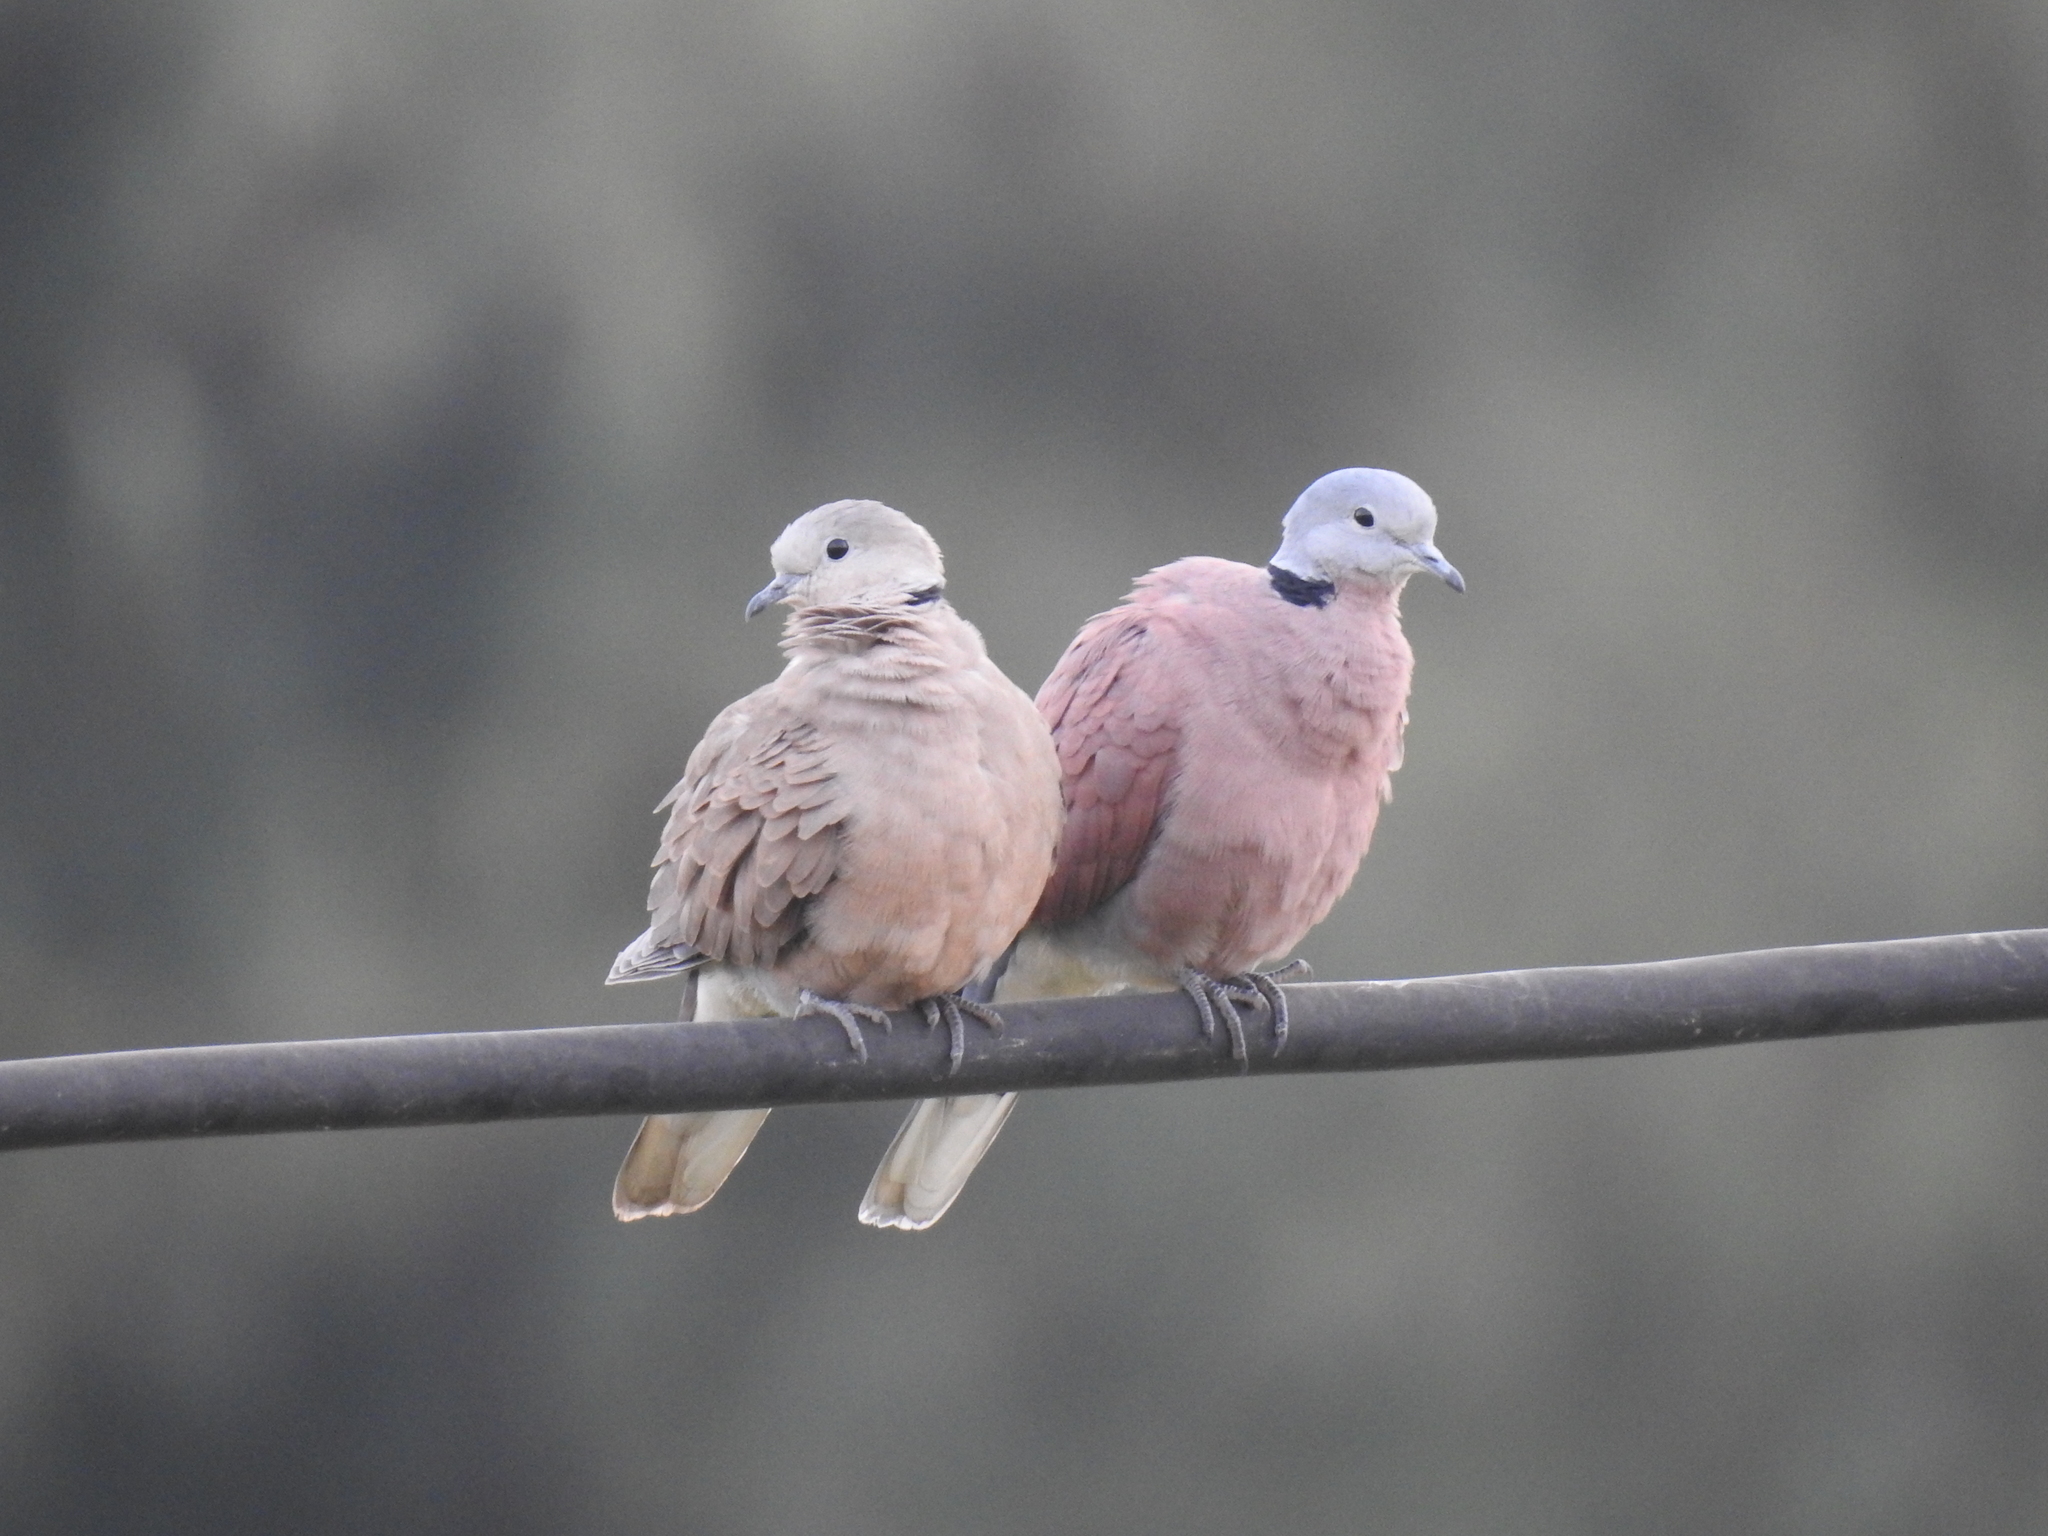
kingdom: Animalia
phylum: Chordata
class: Aves
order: Columbiformes
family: Columbidae
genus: Streptopelia
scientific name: Streptopelia tranquebarica
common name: Red turtle dove
